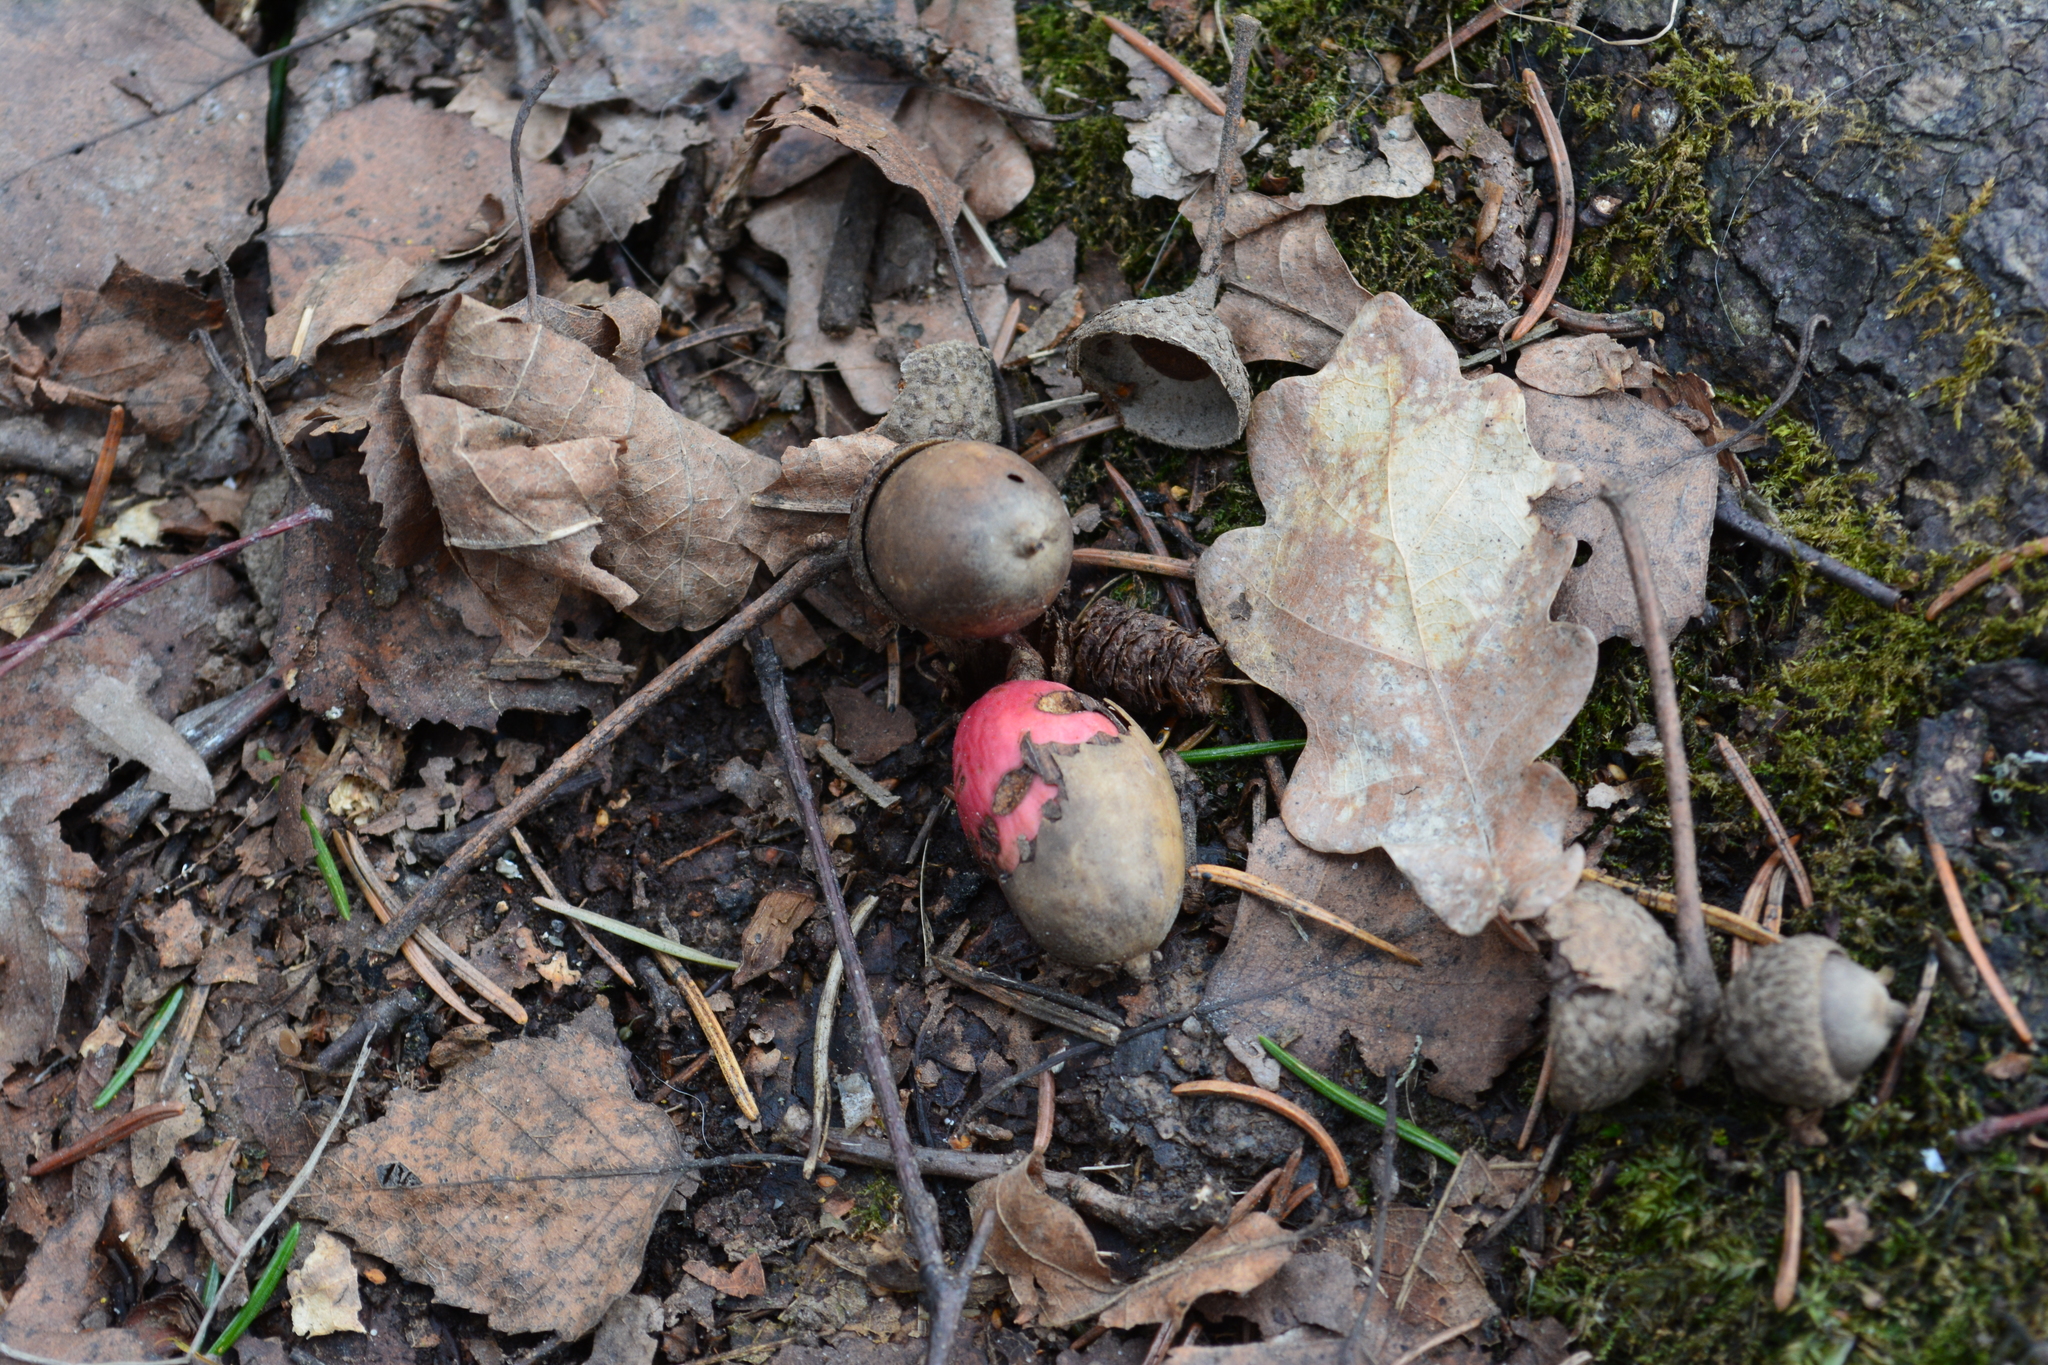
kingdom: Plantae
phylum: Tracheophyta
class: Magnoliopsida
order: Fagales
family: Fagaceae
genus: Quercus
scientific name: Quercus robur
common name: Pedunculate oak
